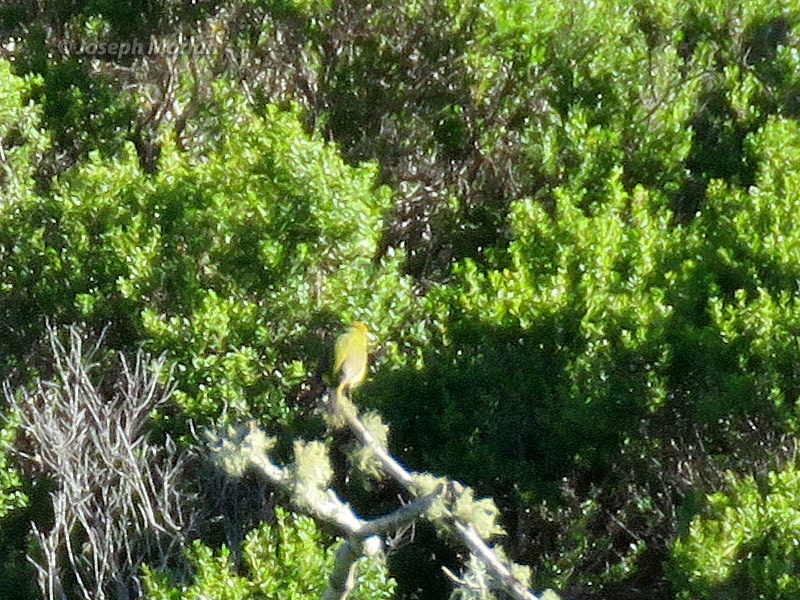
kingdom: Animalia
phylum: Chordata
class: Aves
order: Passeriformes
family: Parulidae
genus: Leiothlypis
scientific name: Leiothlypis celata
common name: Orange-crowned warbler
